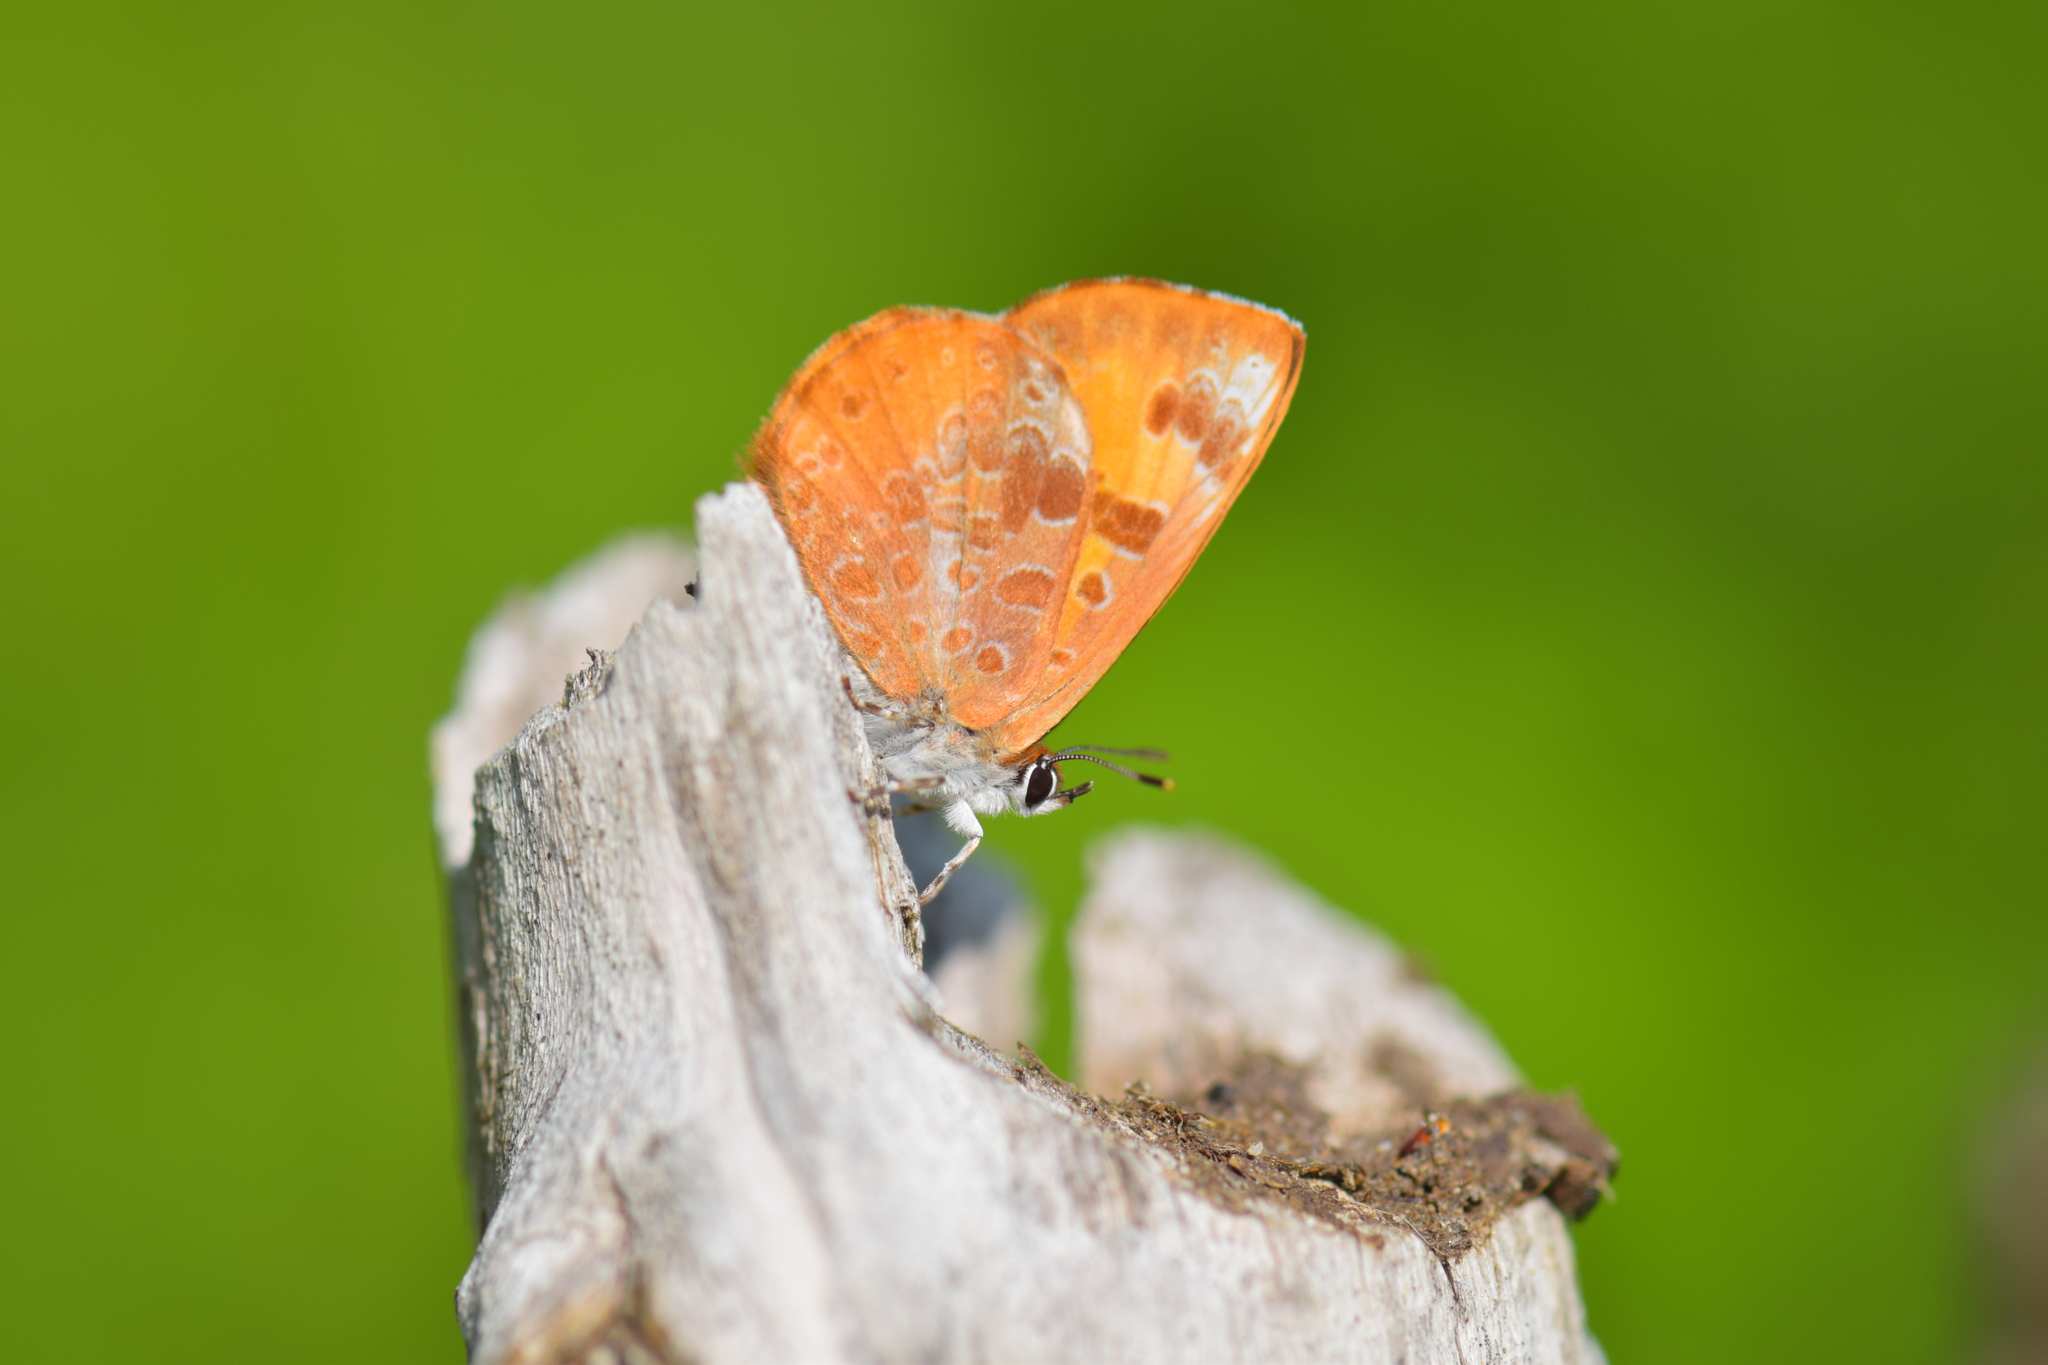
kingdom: Animalia
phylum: Arthropoda
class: Insecta
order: Lepidoptera
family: Lycaenidae
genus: Feniseca
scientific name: Feniseca tarquinius
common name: Harvester
